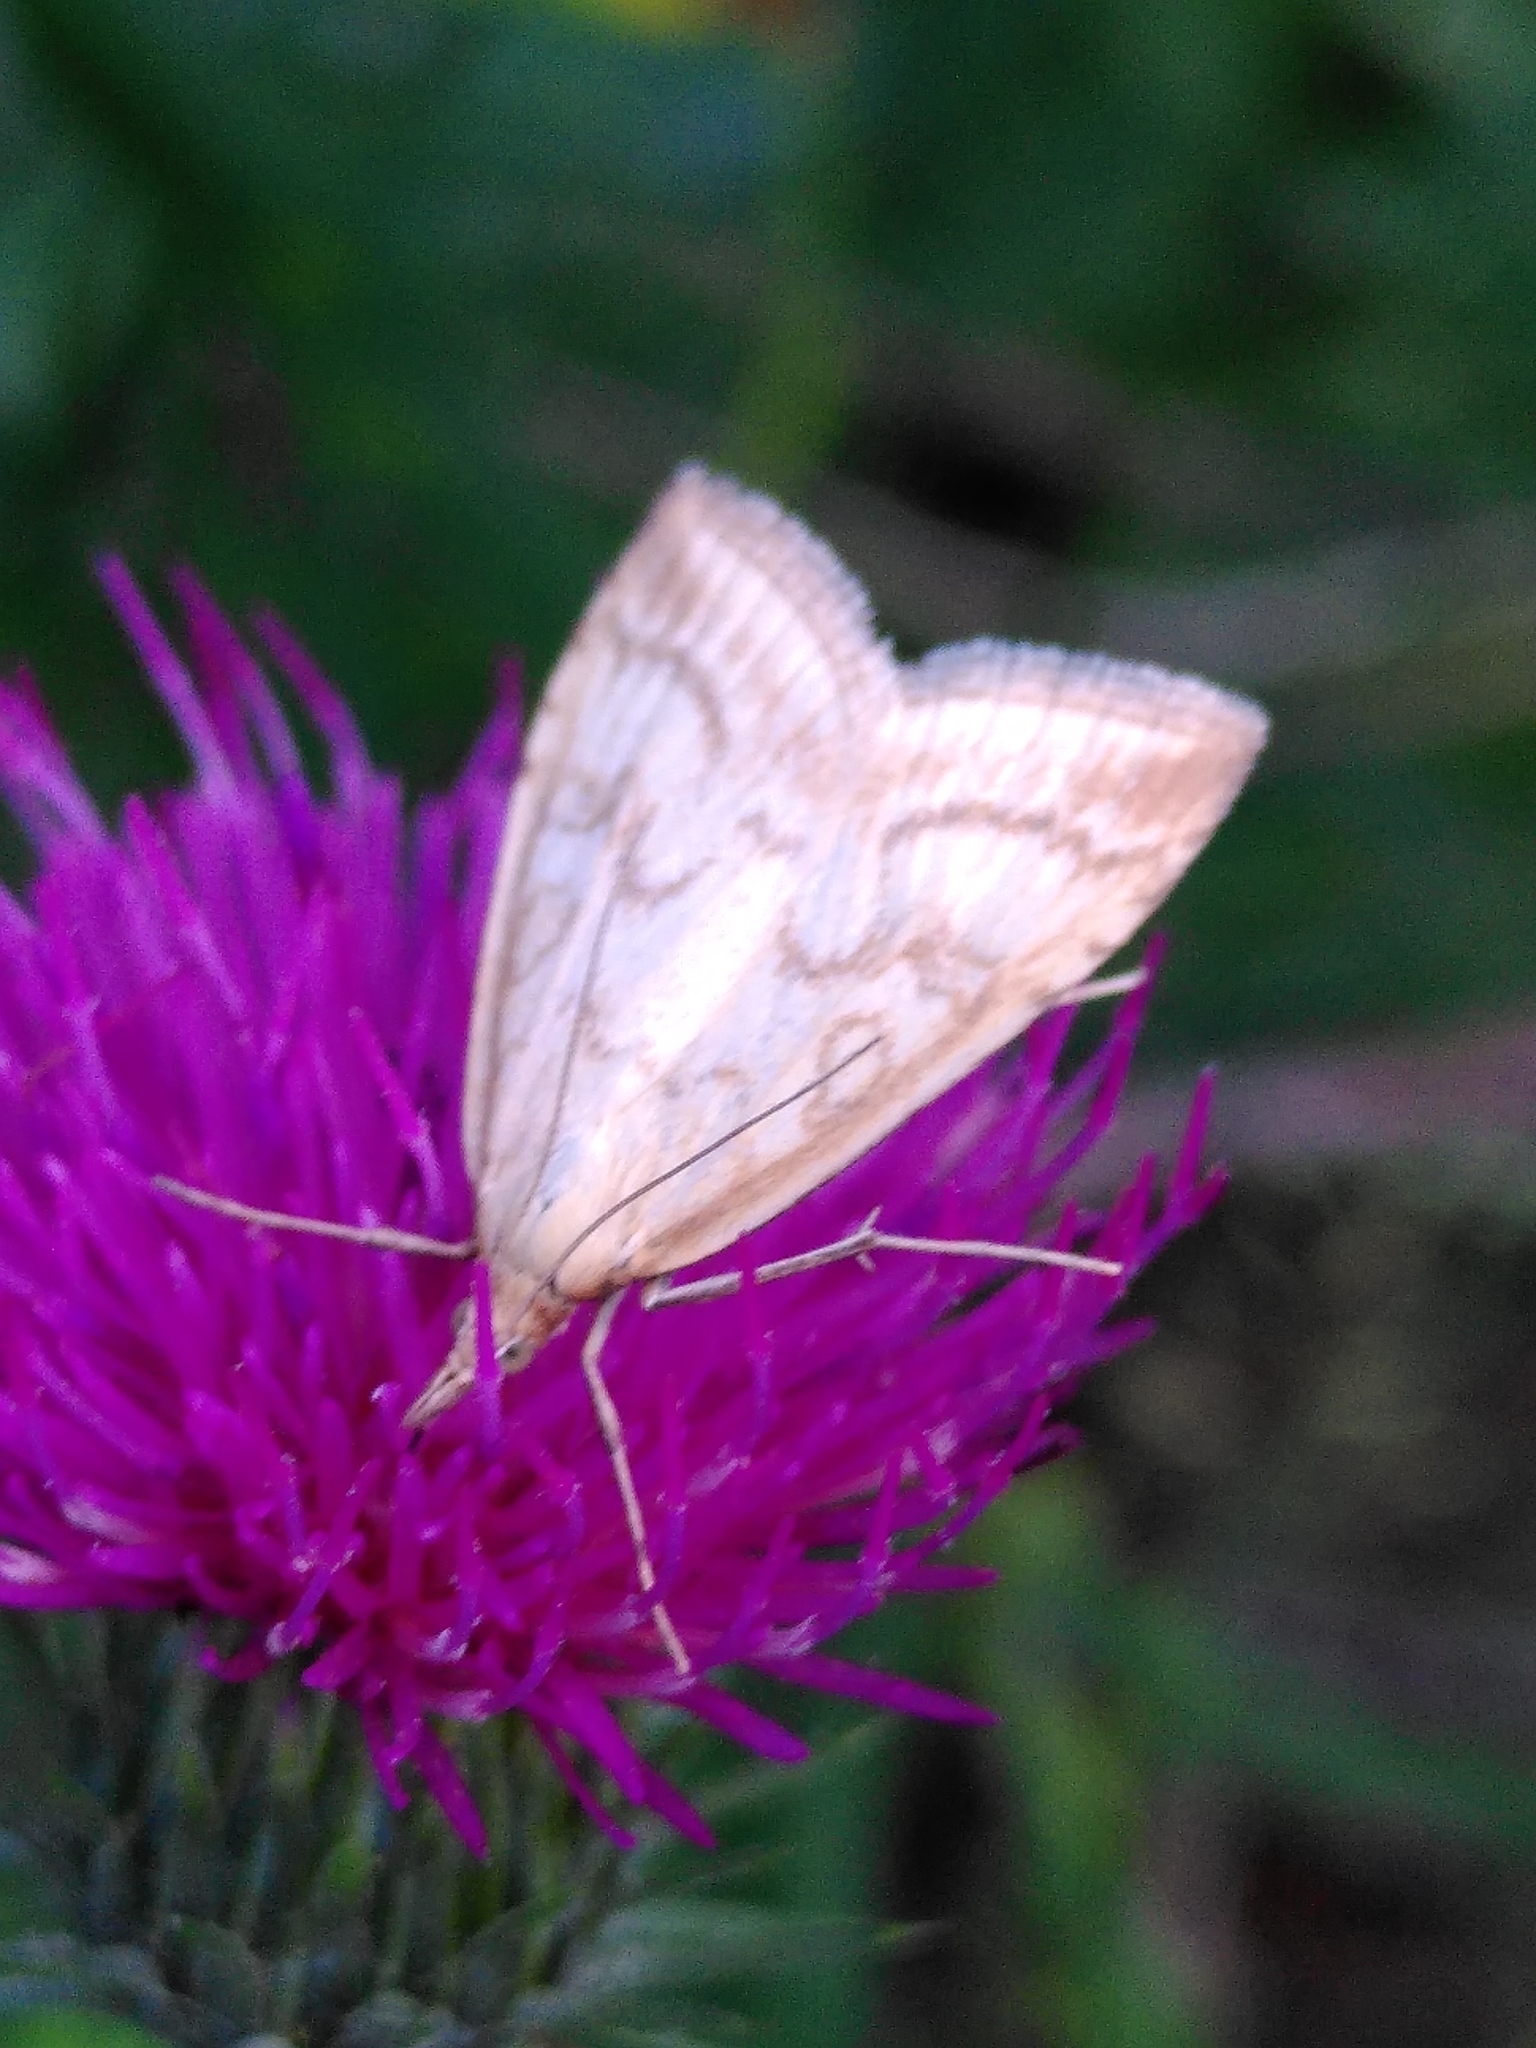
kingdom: Animalia
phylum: Arthropoda
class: Insecta
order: Lepidoptera
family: Crambidae
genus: Udea
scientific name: Udea lutealis
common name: Pale straw pearl
